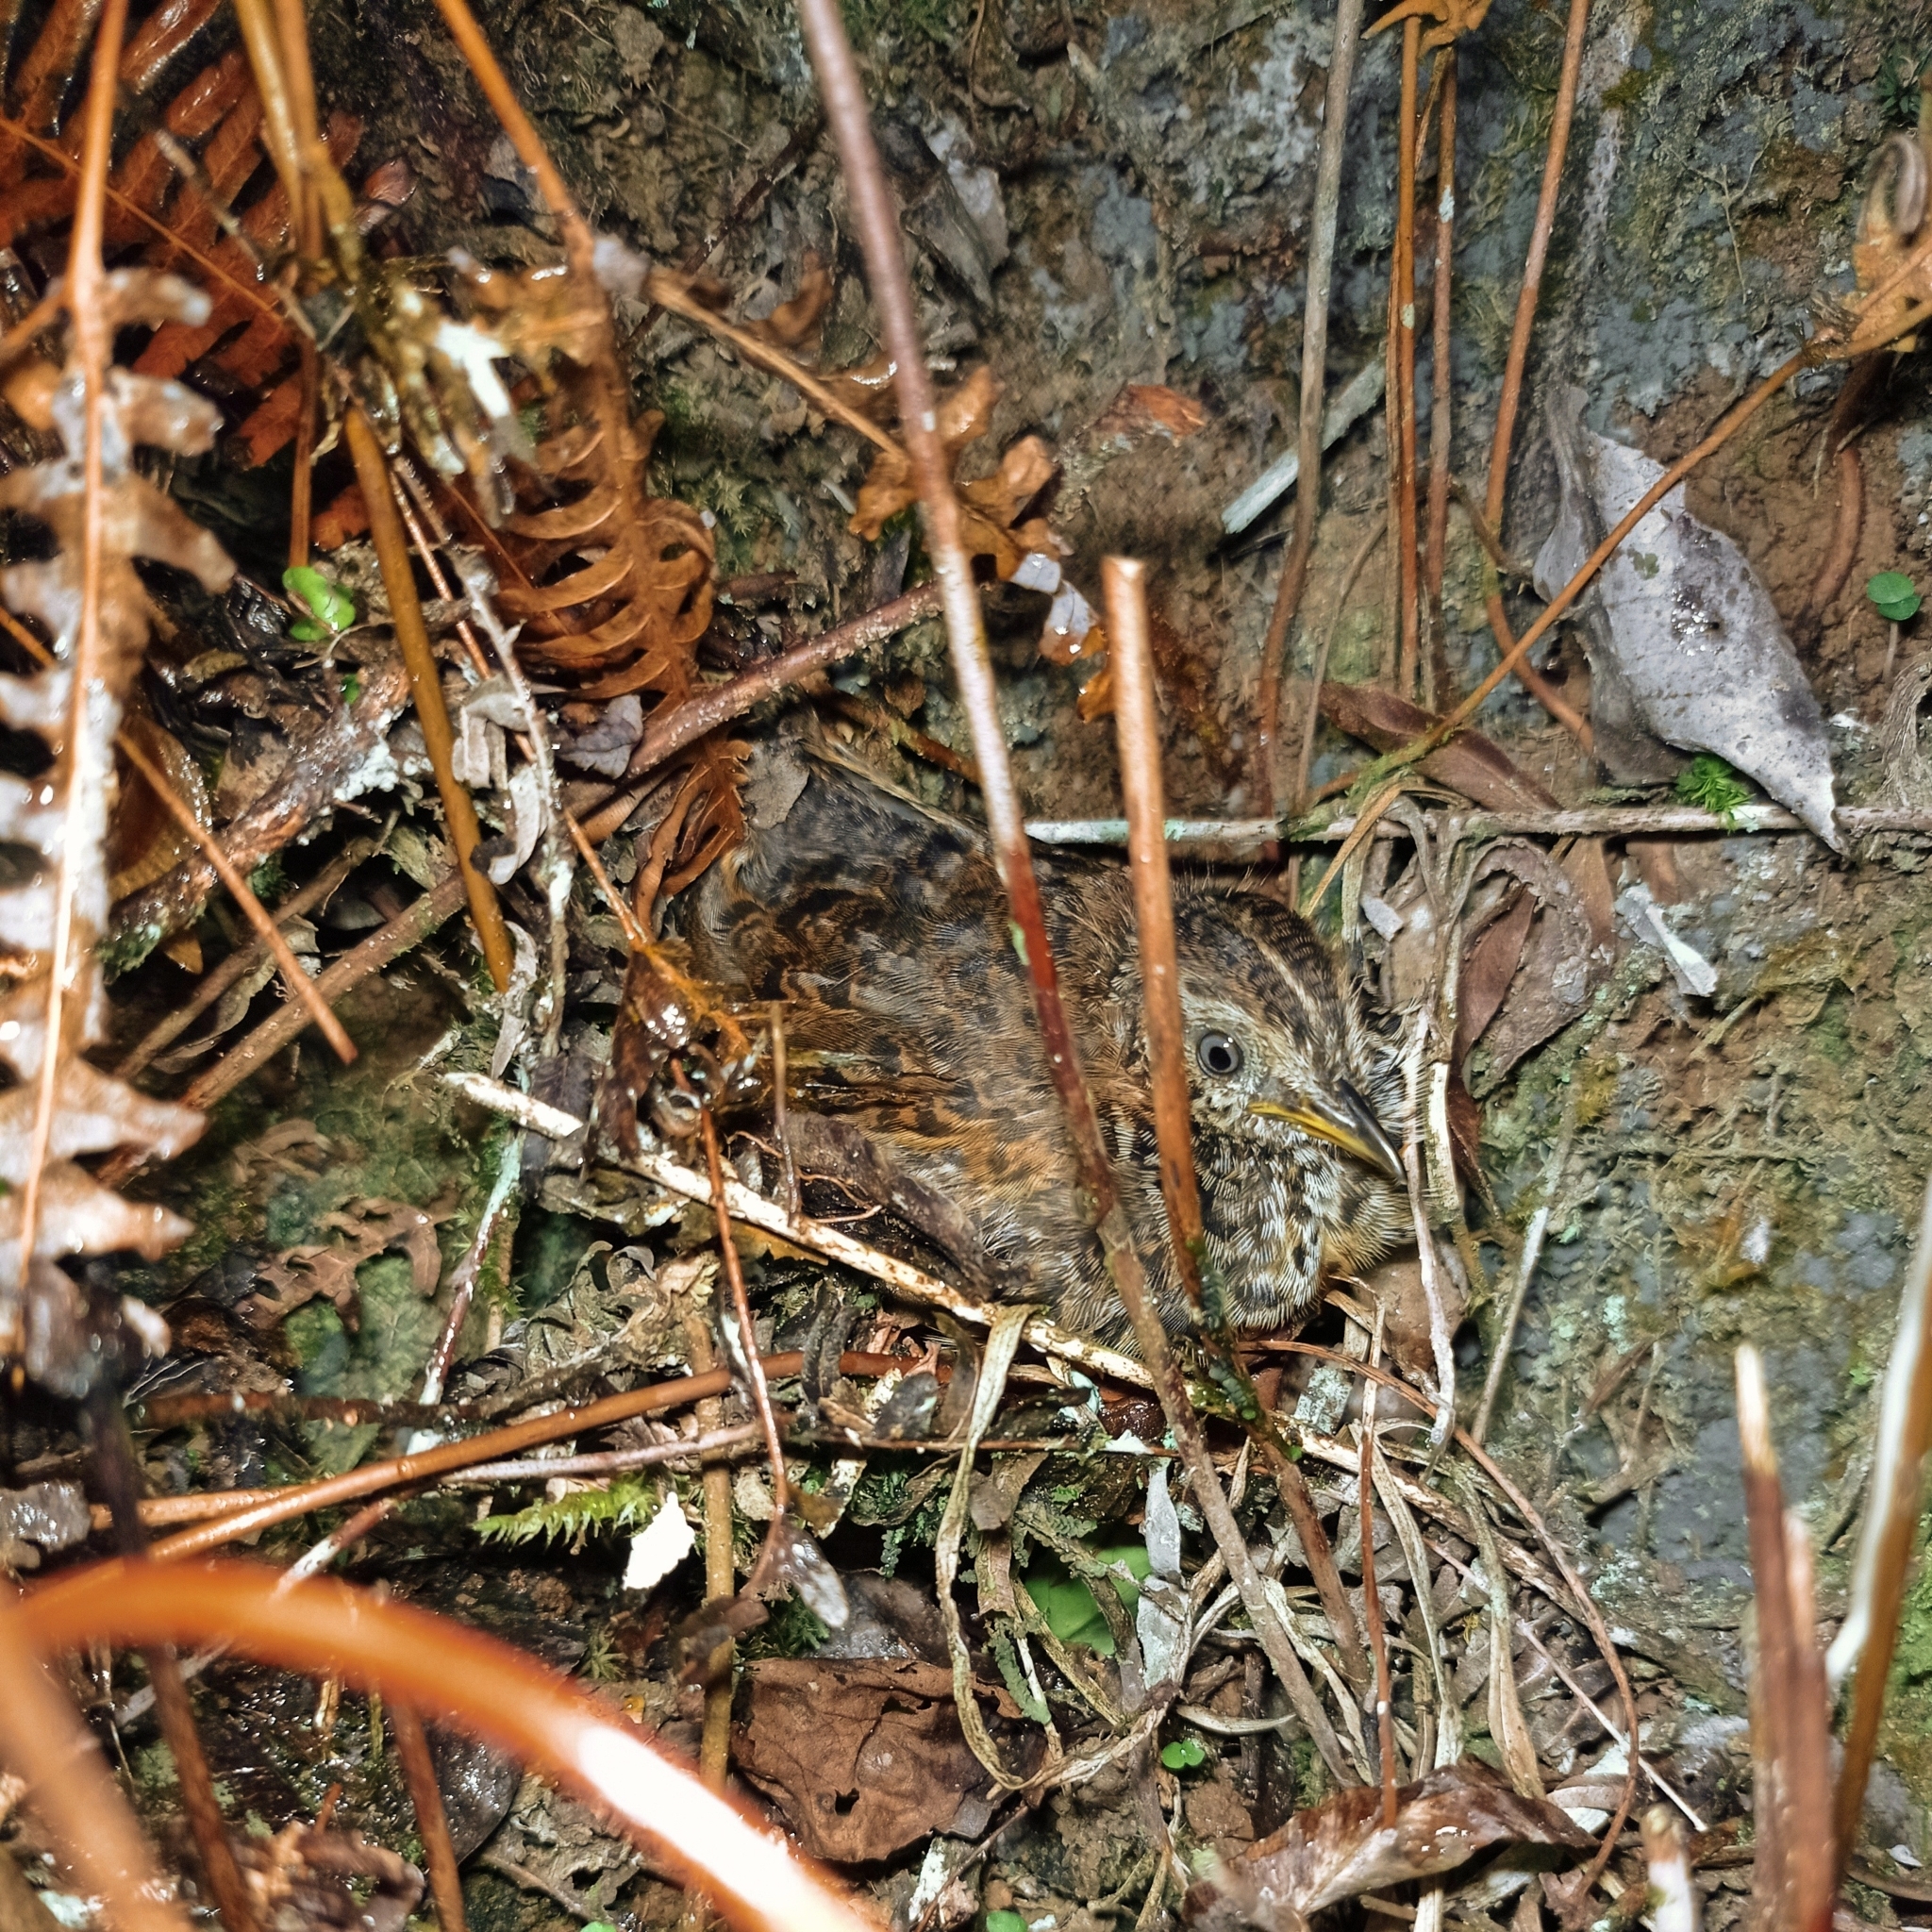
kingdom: Animalia
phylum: Chordata
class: Aves
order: Charadriiformes
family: Turnicidae
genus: Turnix
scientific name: Turnix suscitator
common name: Barred buttonquail
